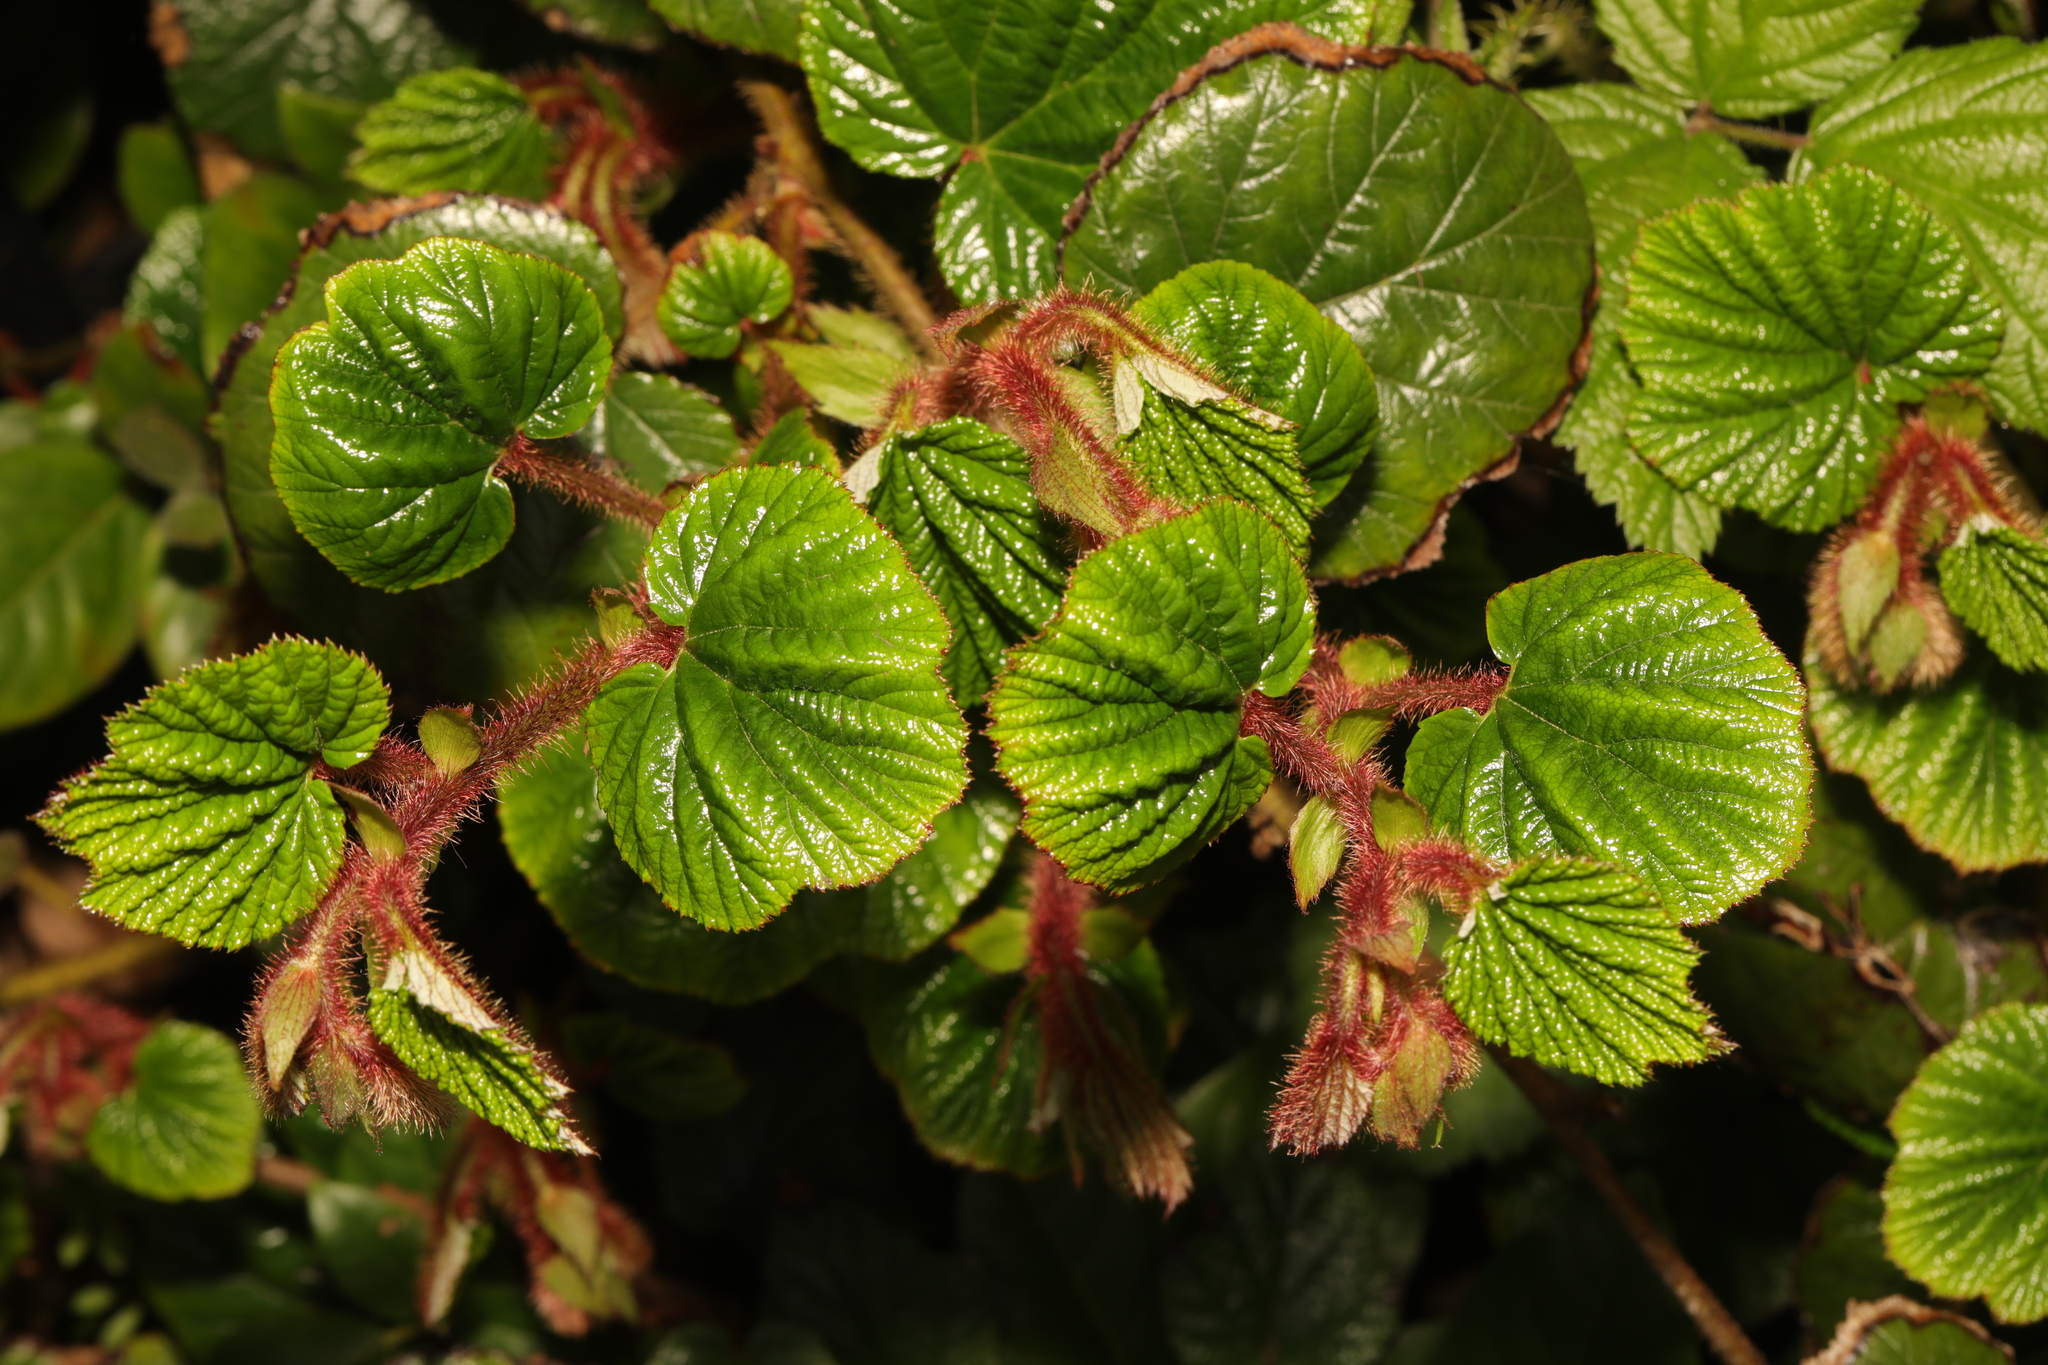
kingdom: Plantae
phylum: Tracheophyta
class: Magnoliopsida
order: Rosales
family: Rosaceae
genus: Rubus
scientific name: Rubus tricolor
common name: Chinese bramble
